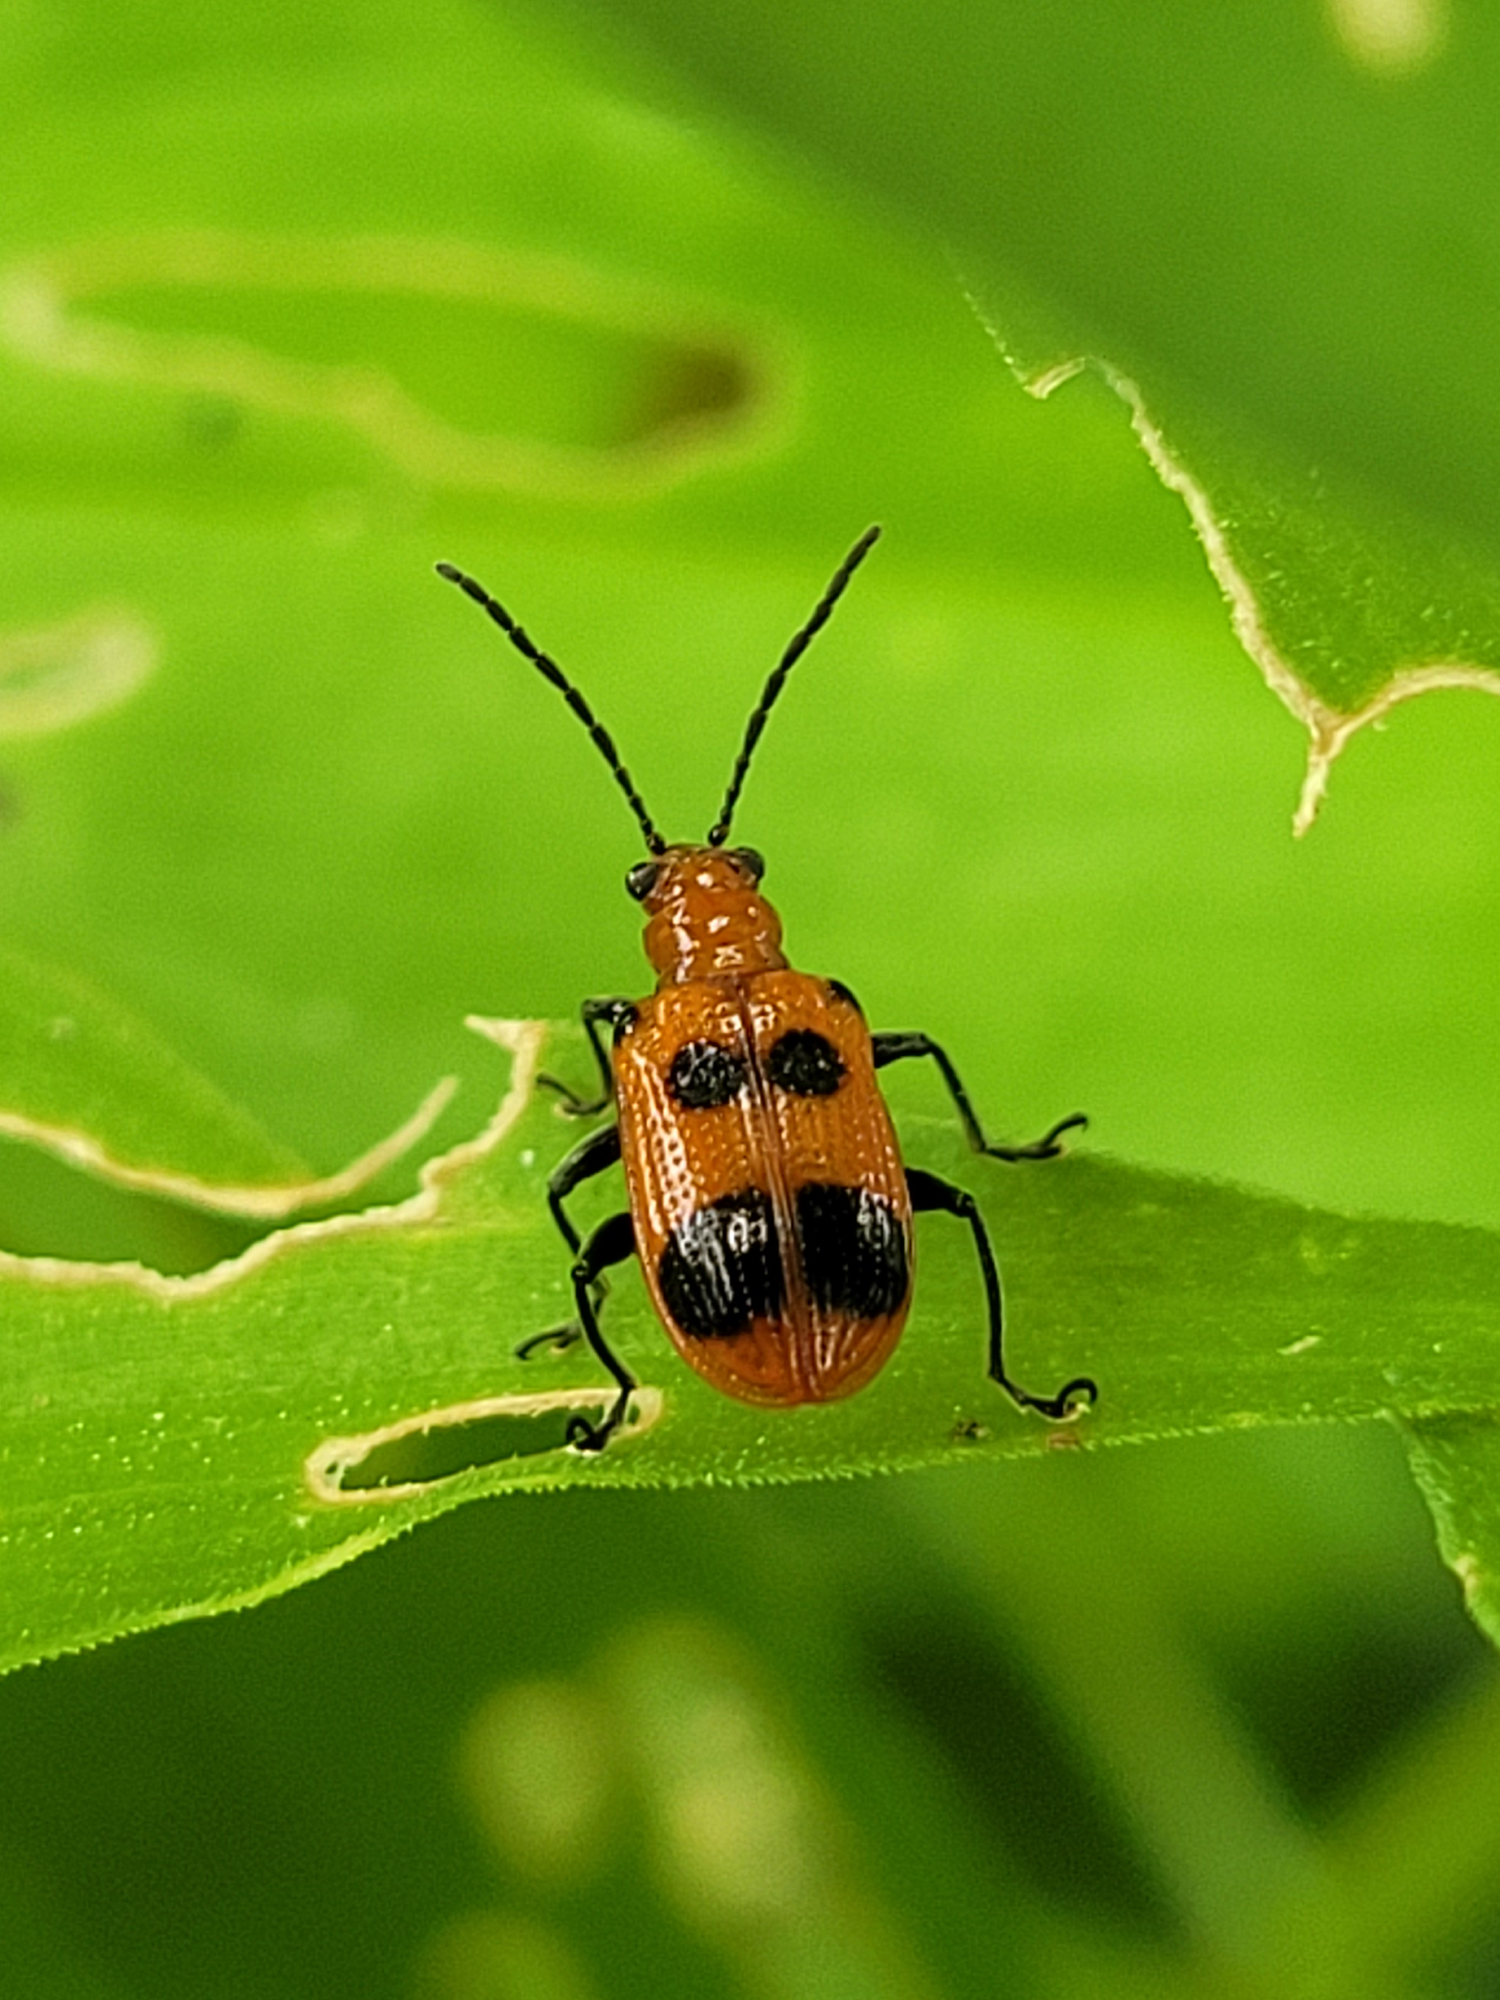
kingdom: Animalia
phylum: Arthropoda
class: Insecta
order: Coleoptera
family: Chrysomelidae
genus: Neolema
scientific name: Neolema sexpunctata
